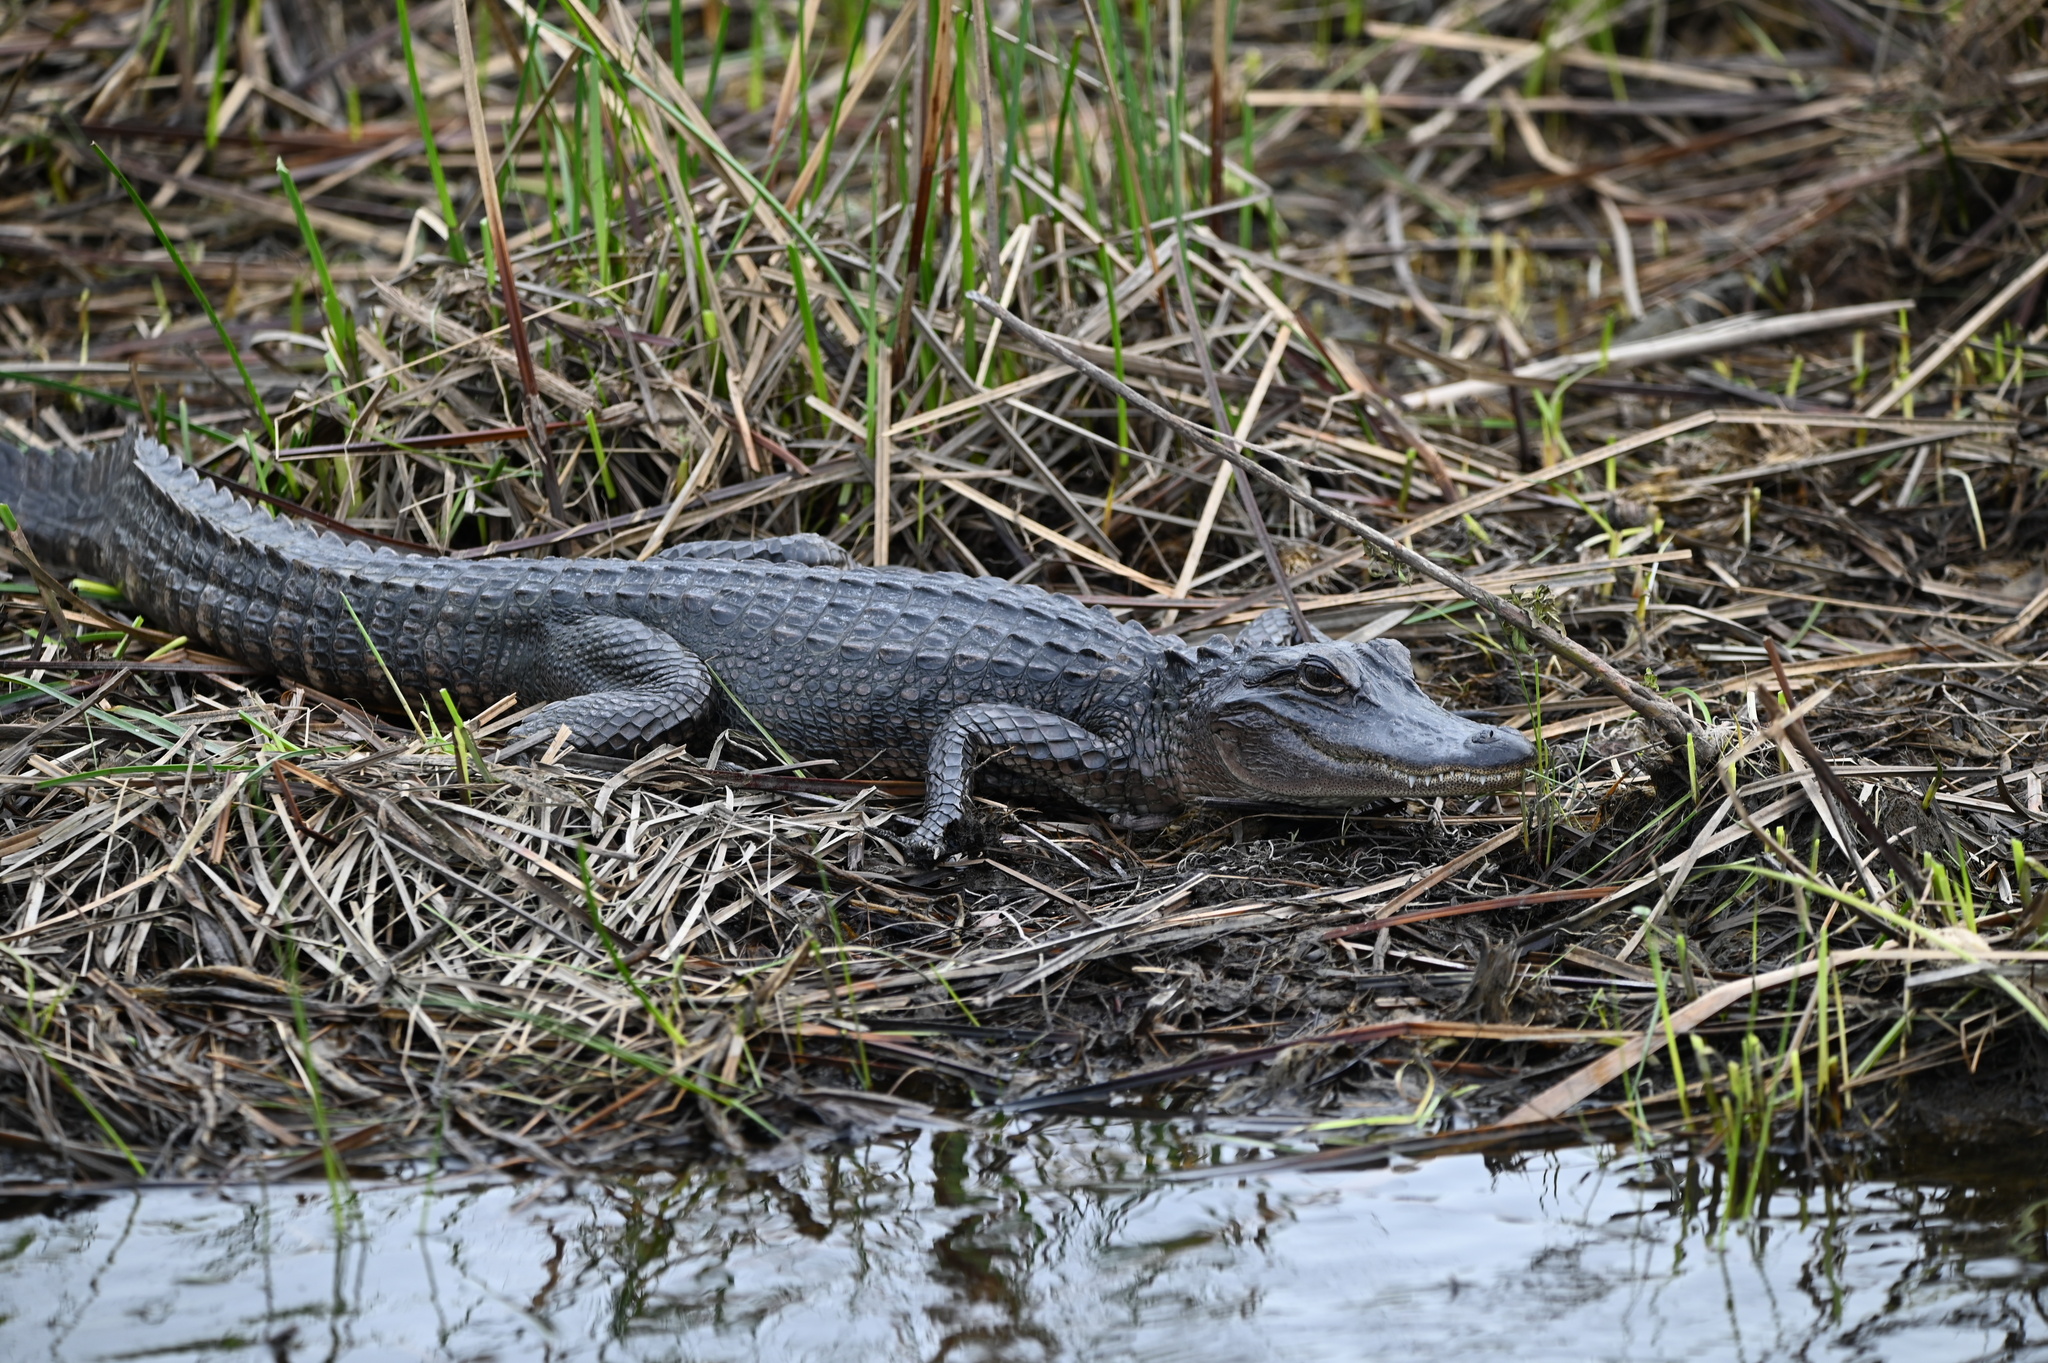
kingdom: Animalia
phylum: Chordata
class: Crocodylia
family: Alligatoridae
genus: Alligator
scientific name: Alligator mississippiensis
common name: American alligator
